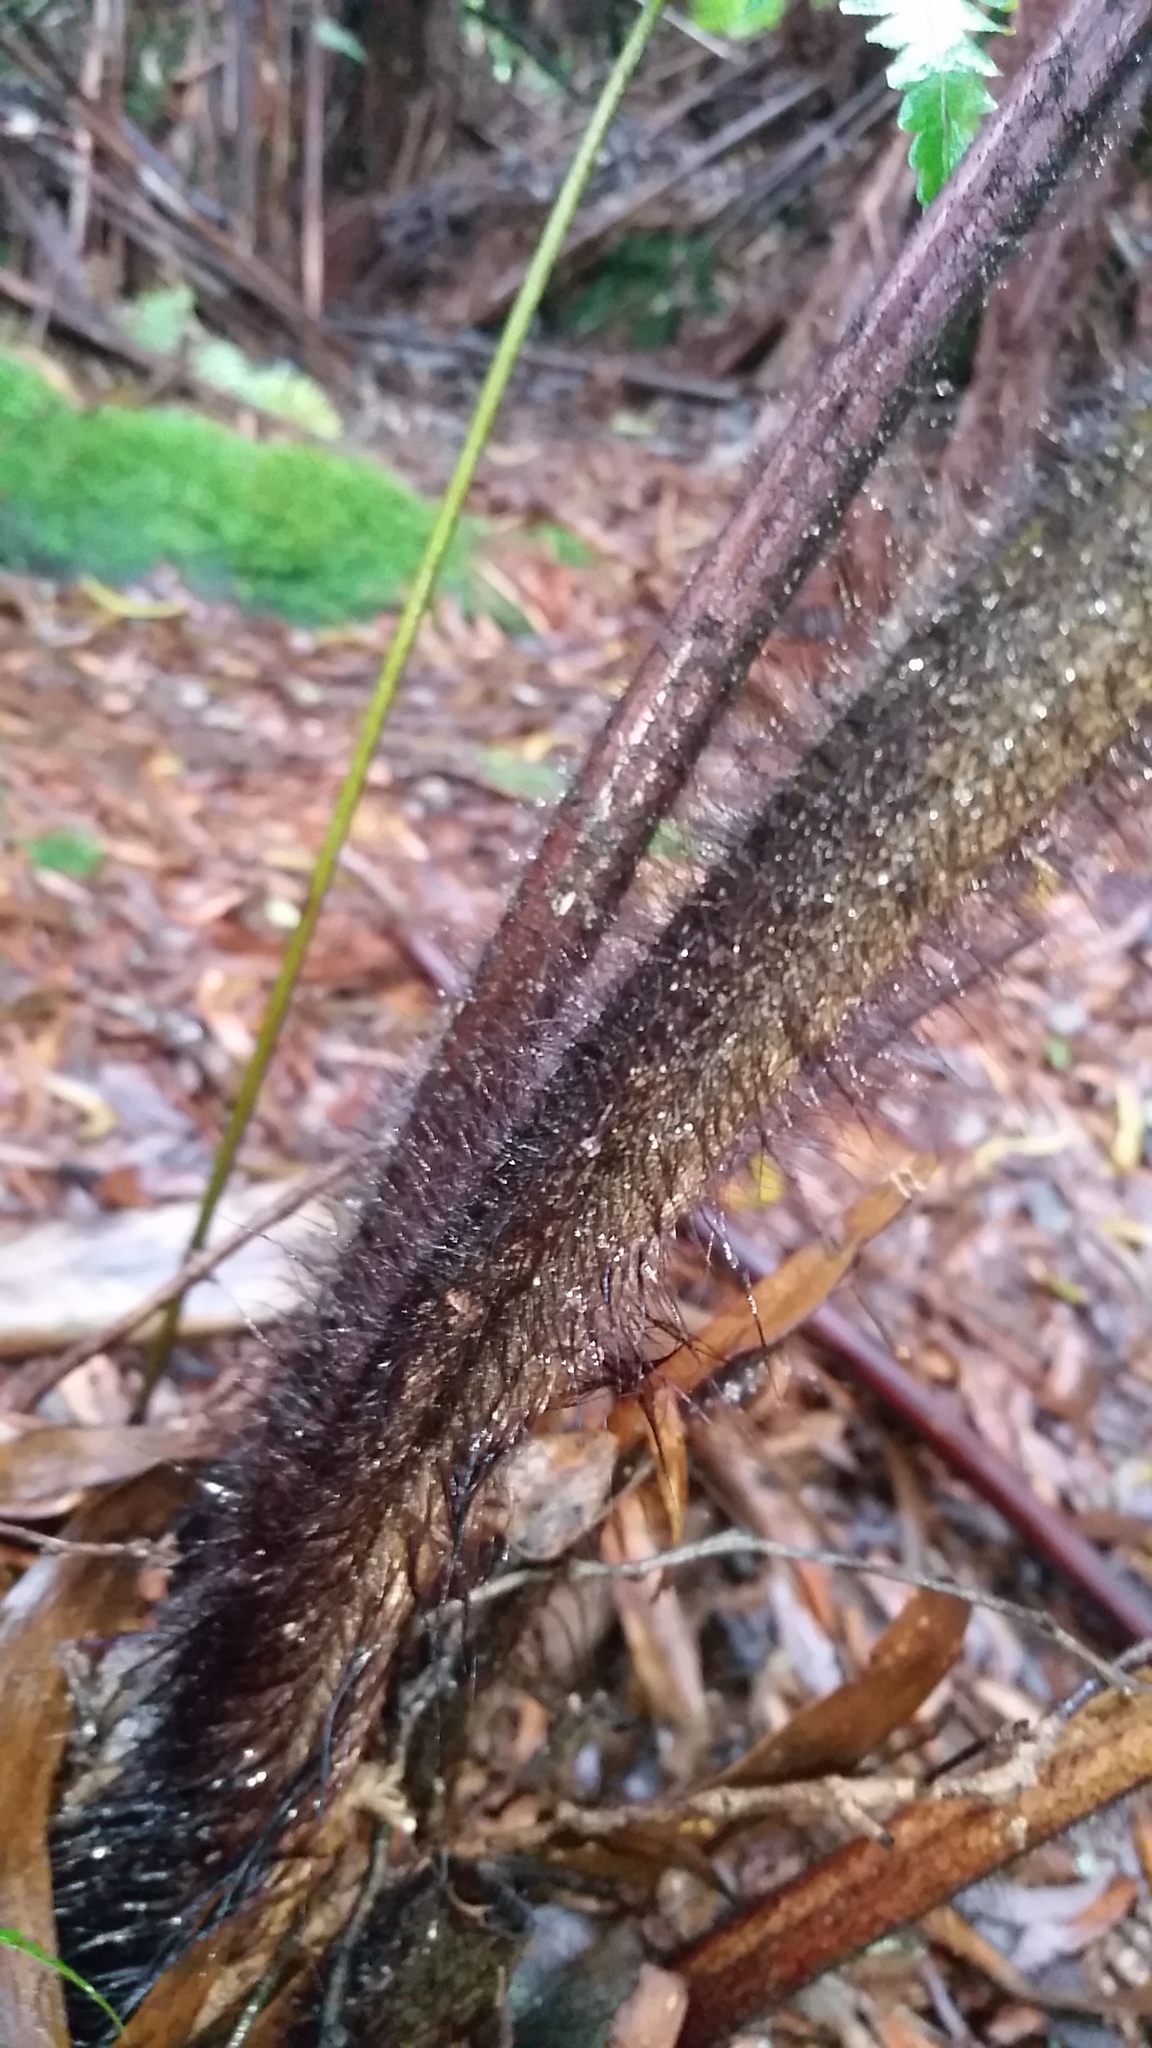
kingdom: Plantae
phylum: Tracheophyta
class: Polypodiopsida
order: Cyatheales
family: Cibotiaceae
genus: Cibotium
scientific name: Cibotium menziesii
